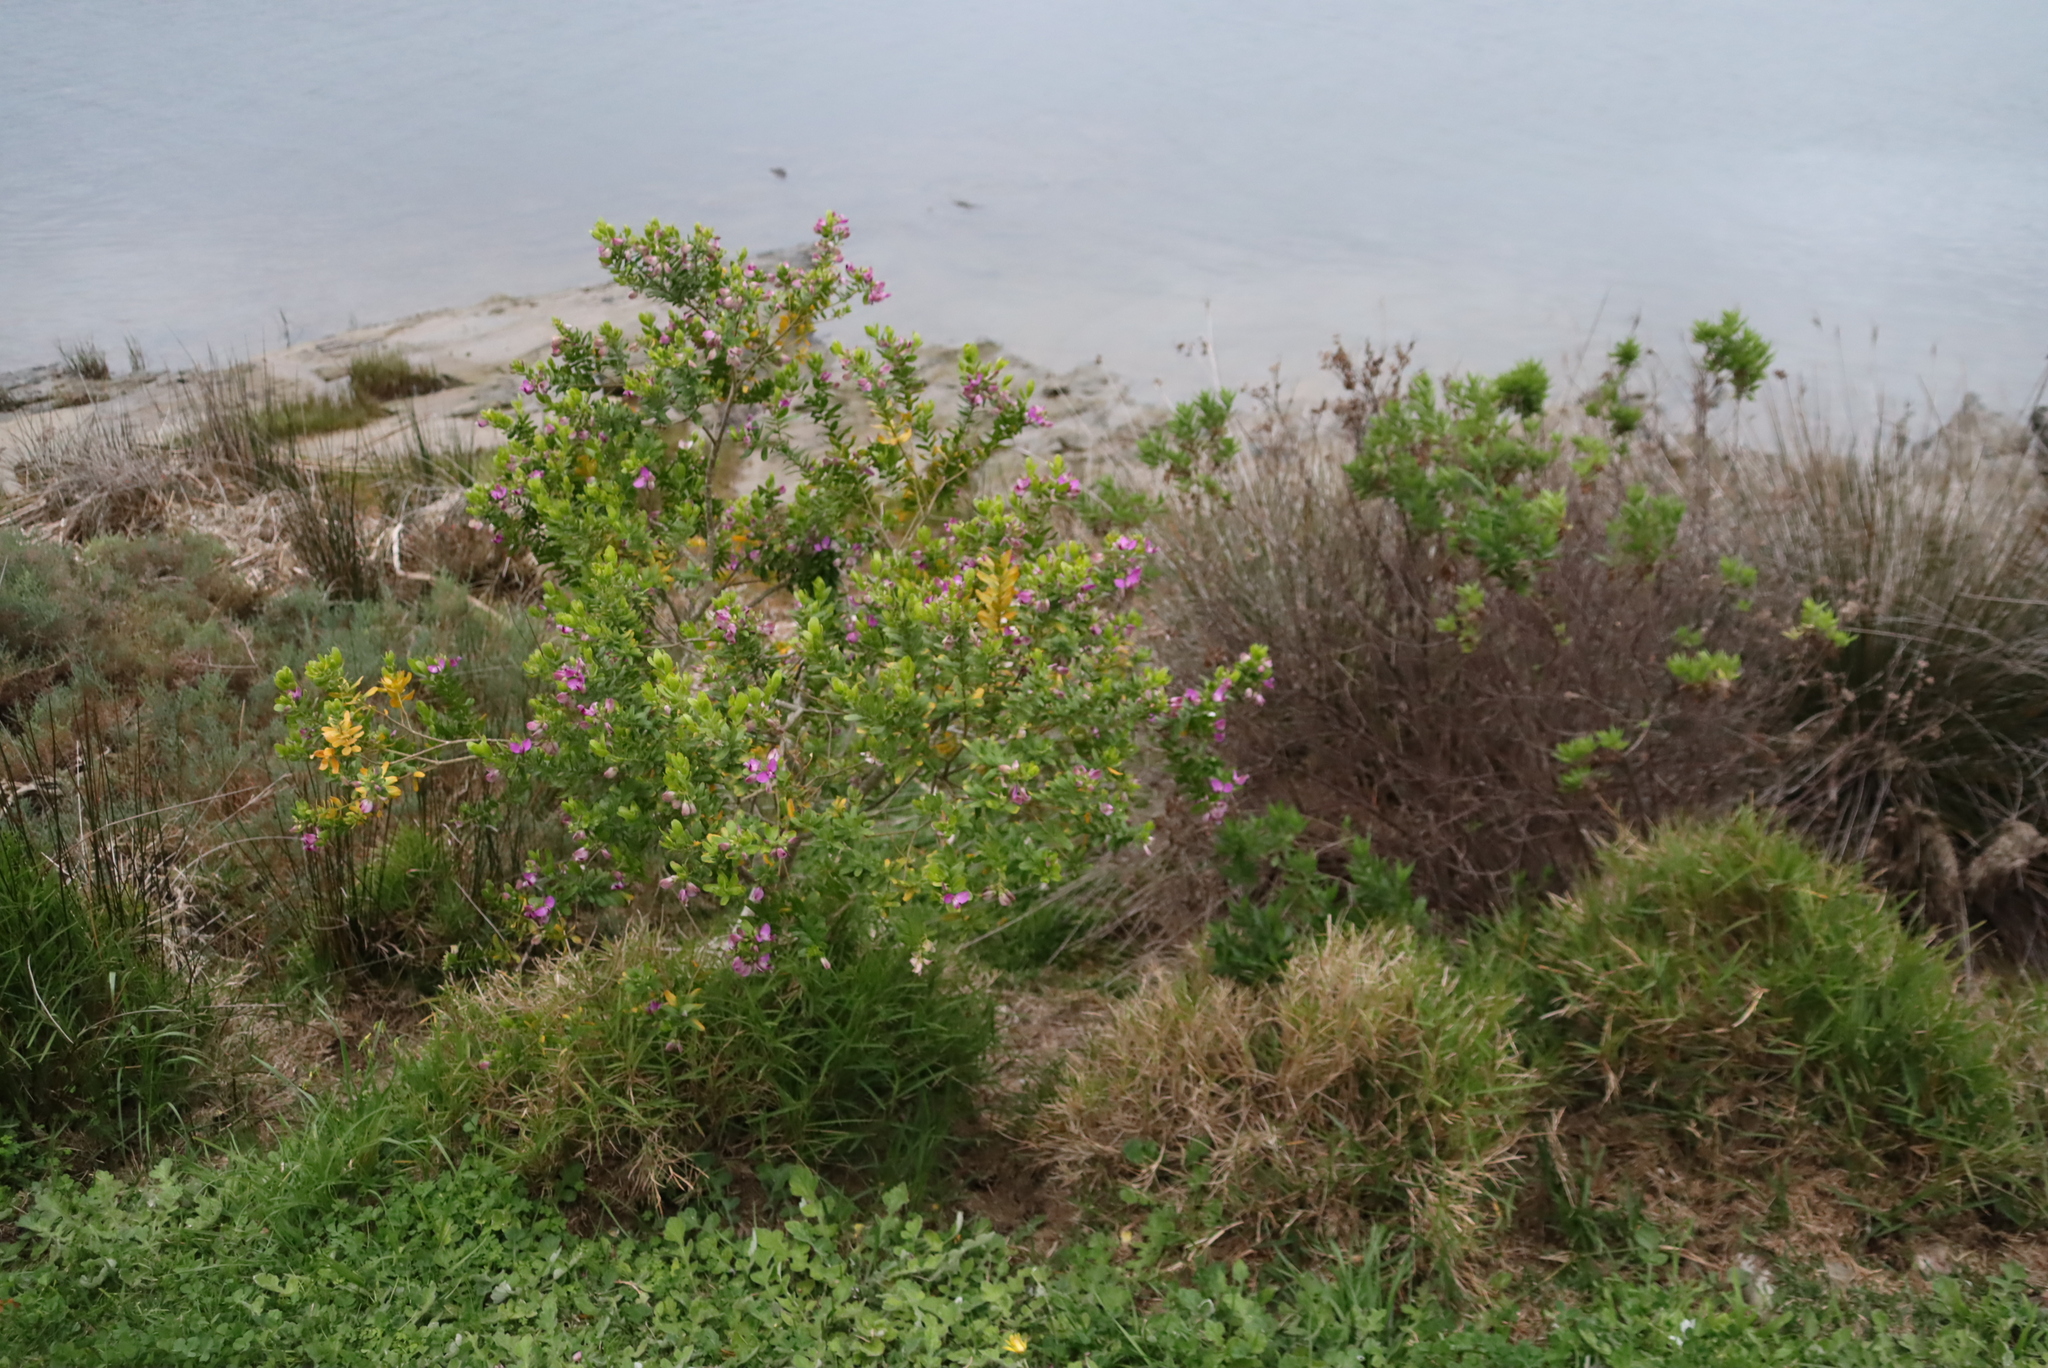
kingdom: Plantae
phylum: Tracheophyta
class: Magnoliopsida
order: Fabales
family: Polygalaceae
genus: Polygala
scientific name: Polygala myrtifolia
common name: Myrtle-leaf milkwort
